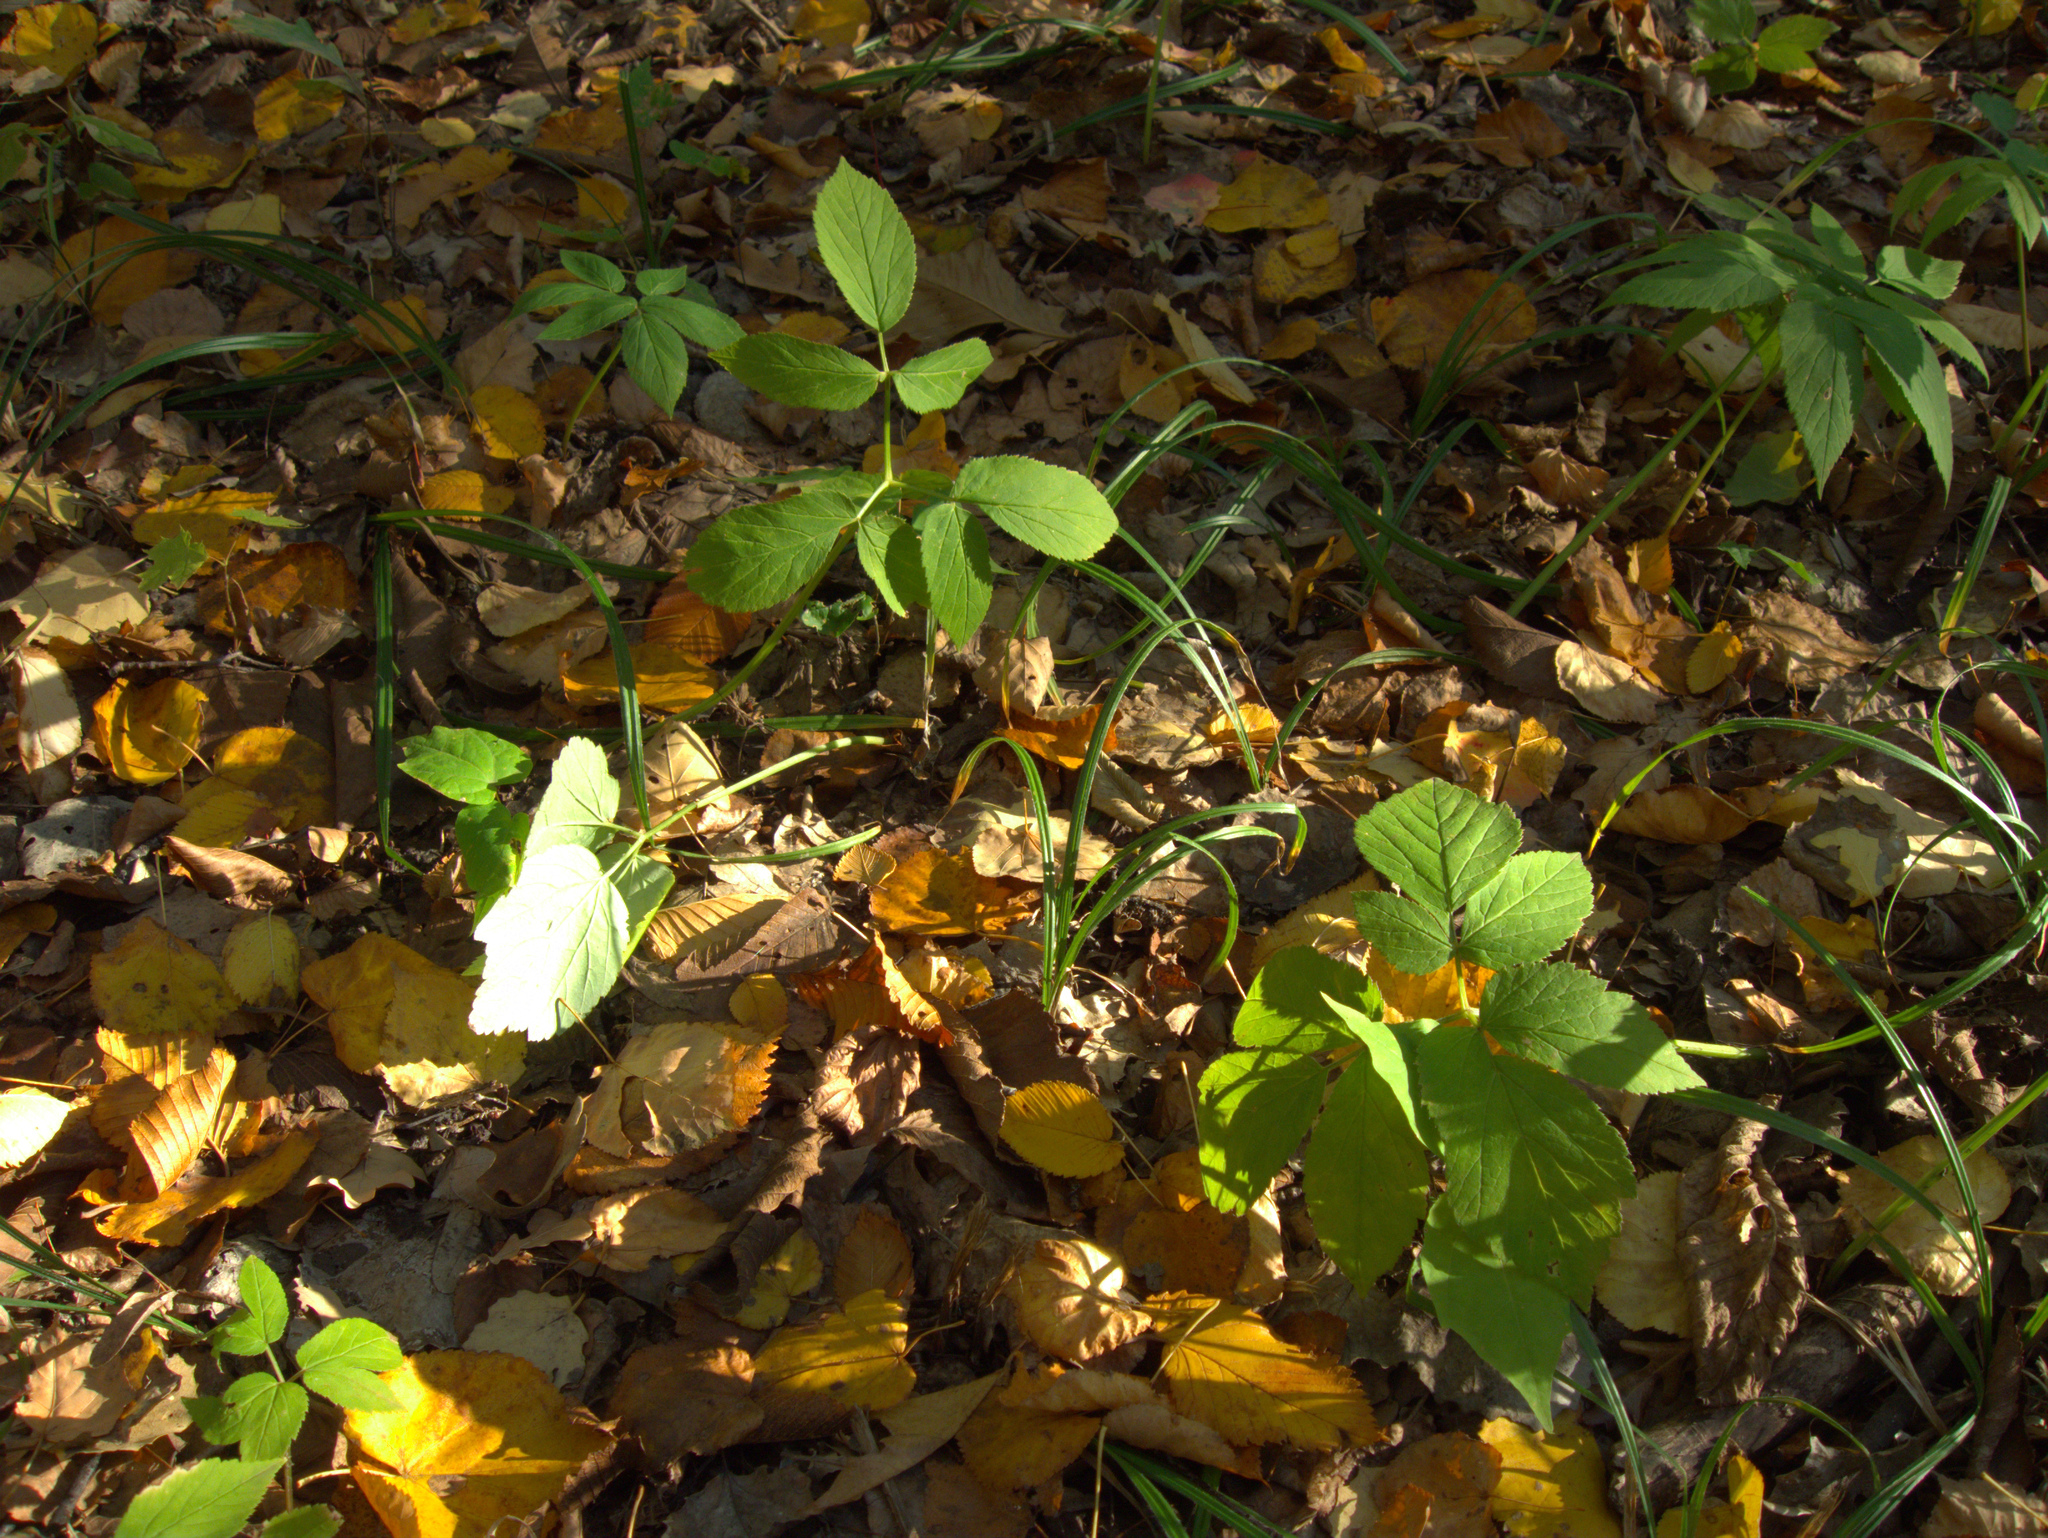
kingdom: Plantae
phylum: Tracheophyta
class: Magnoliopsida
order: Apiales
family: Apiaceae
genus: Aegopodium
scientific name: Aegopodium podagraria
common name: Ground-elder
